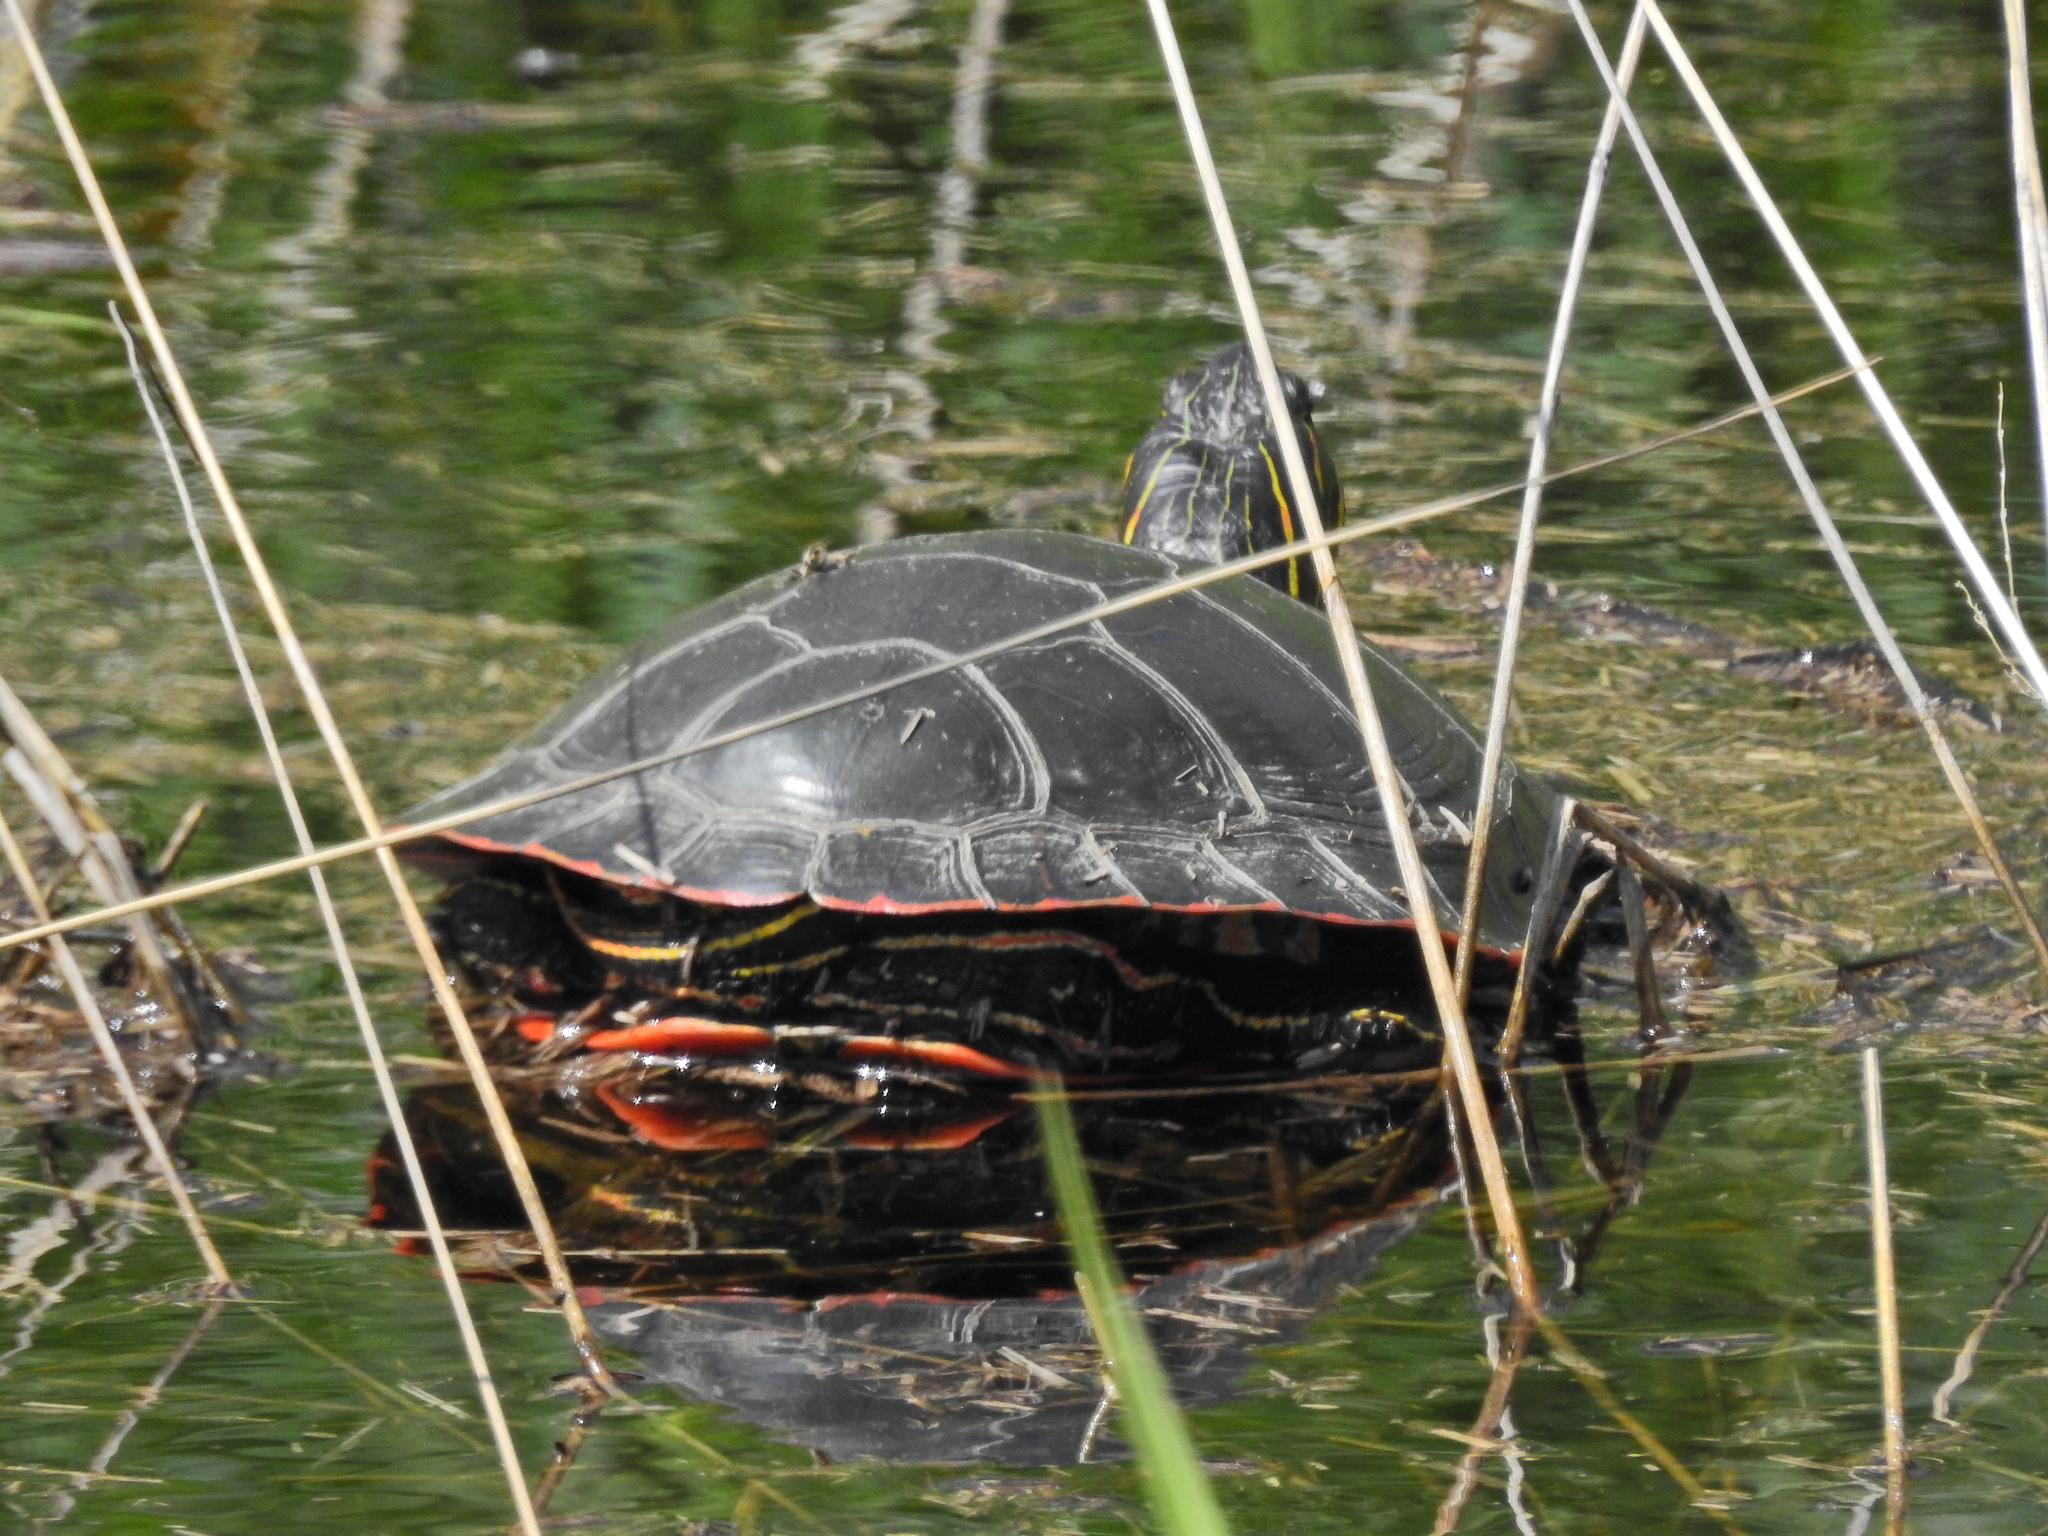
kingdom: Animalia
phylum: Chordata
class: Testudines
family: Emydidae
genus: Chrysemys
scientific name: Chrysemys picta
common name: Painted turtle
